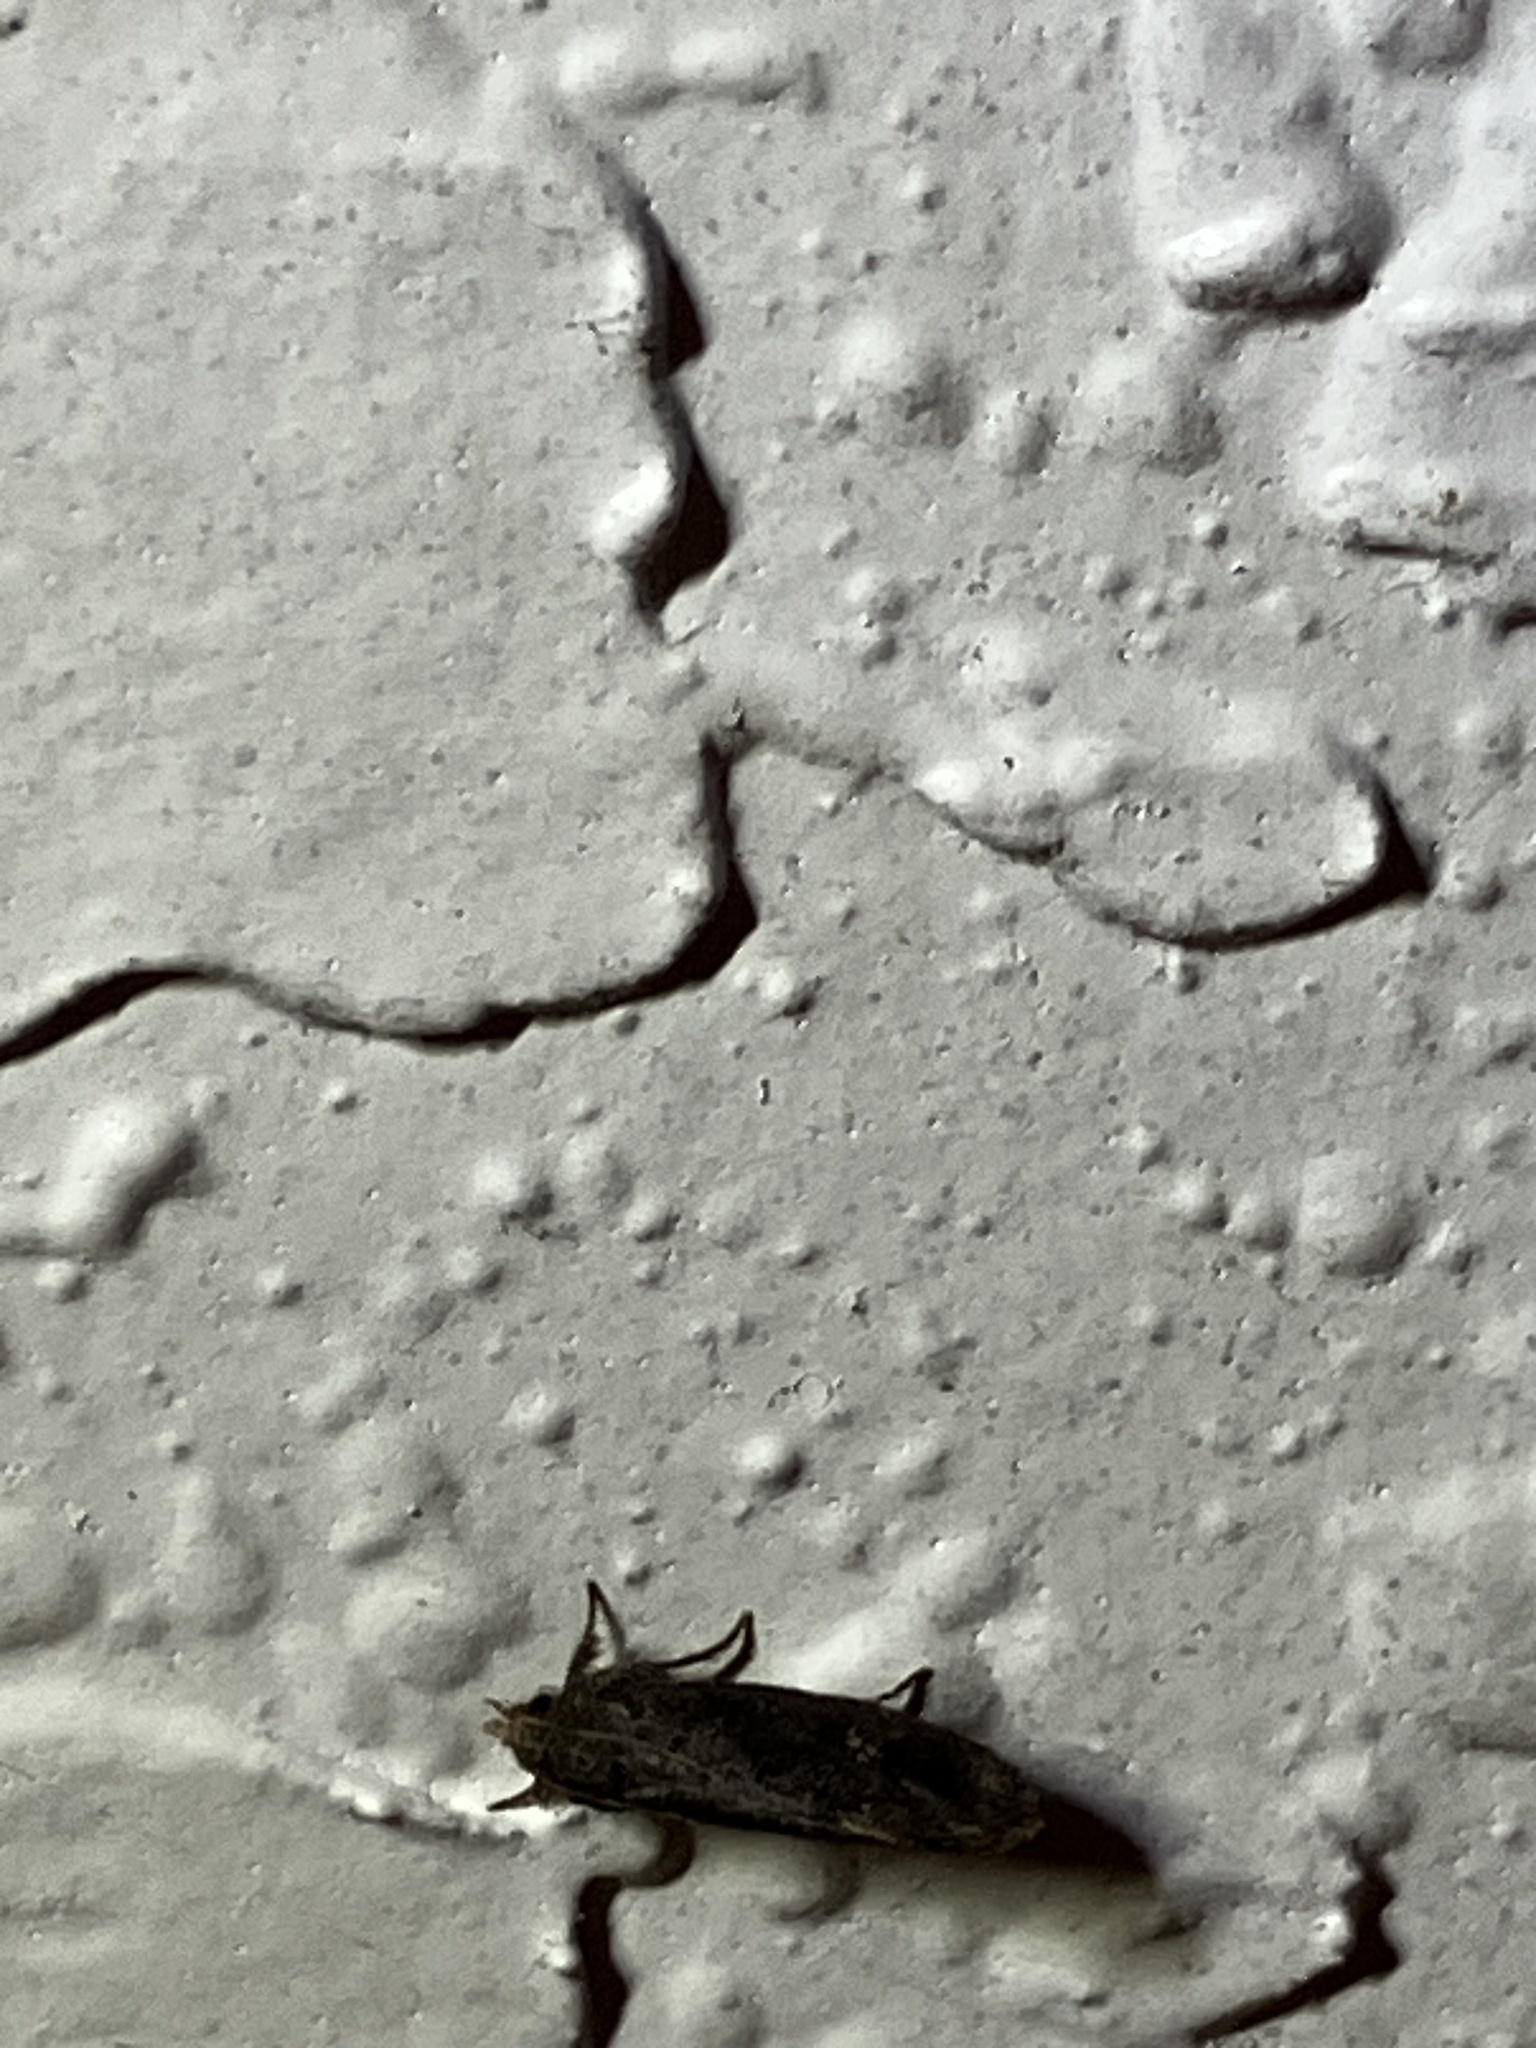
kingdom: Animalia
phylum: Arthropoda
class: Insecta
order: Lepidoptera
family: Tineidae
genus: Acrolophus
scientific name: Acrolophus walsinghami
